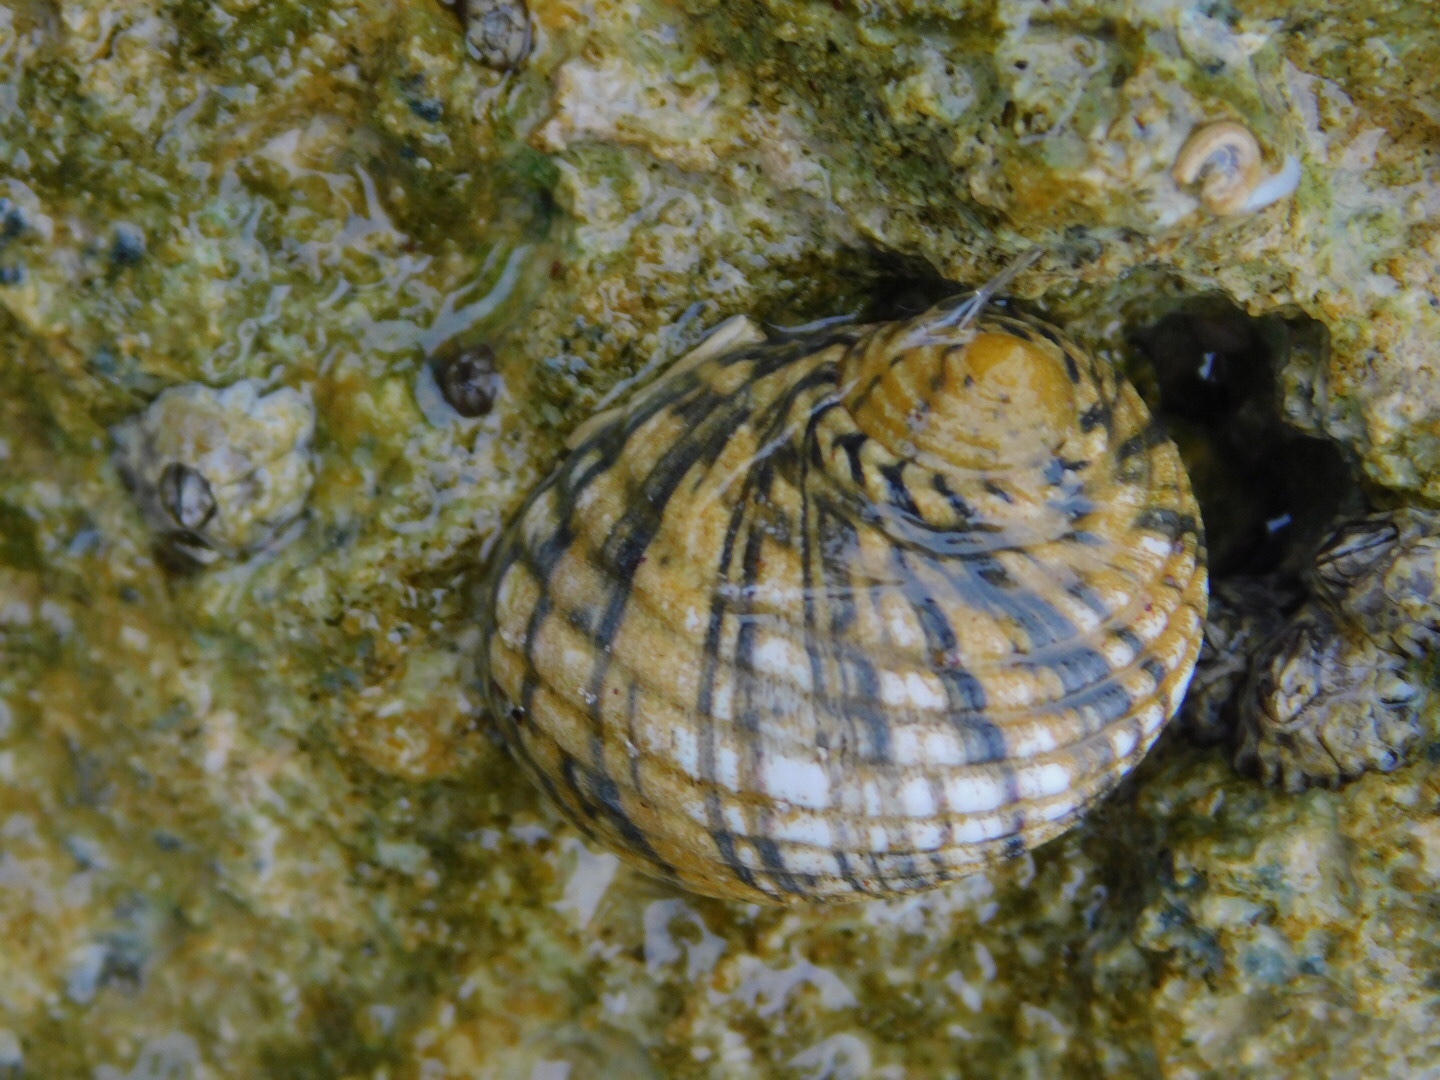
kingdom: Animalia
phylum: Mollusca
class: Gastropoda
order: Cycloneritida
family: Neritidae
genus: Nerita
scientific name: Nerita versicolor
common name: Four-tooth nerite
